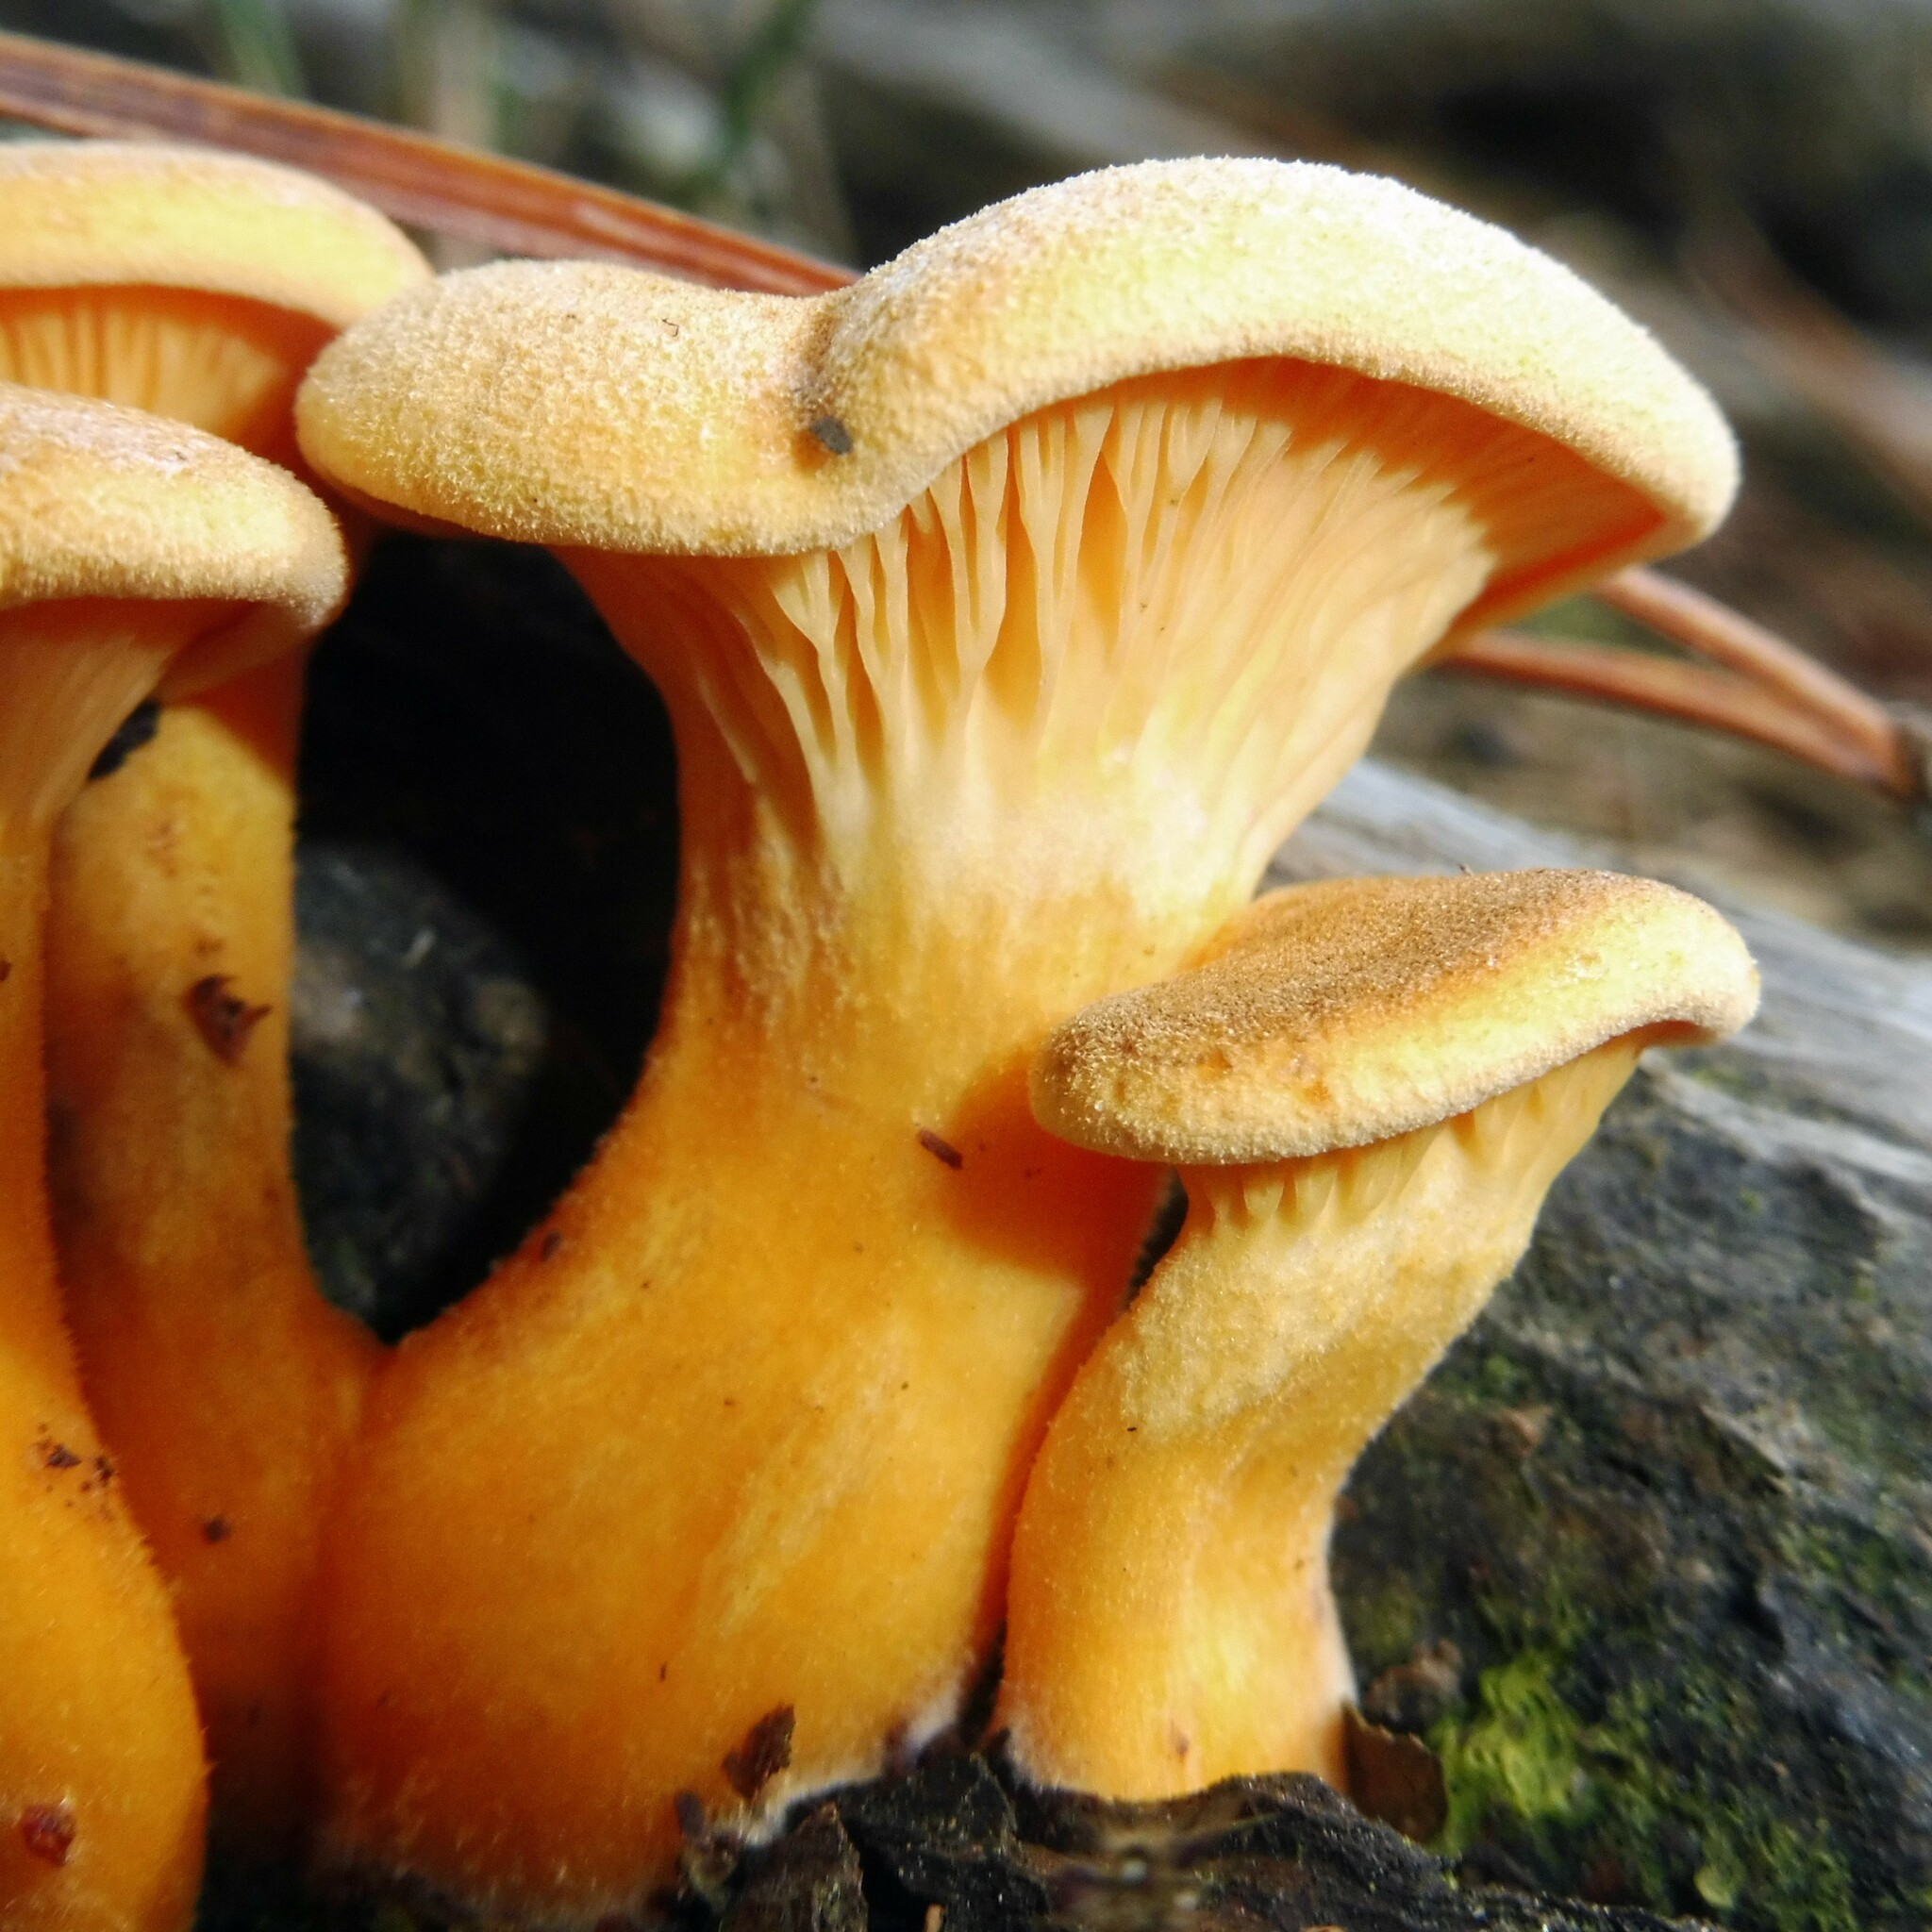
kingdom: Fungi
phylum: Basidiomycota
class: Agaricomycetes
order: Boletales
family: Hygrophoropsidaceae
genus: Hygrophoropsis
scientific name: Hygrophoropsis aurantiaca
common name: False chanterelle
